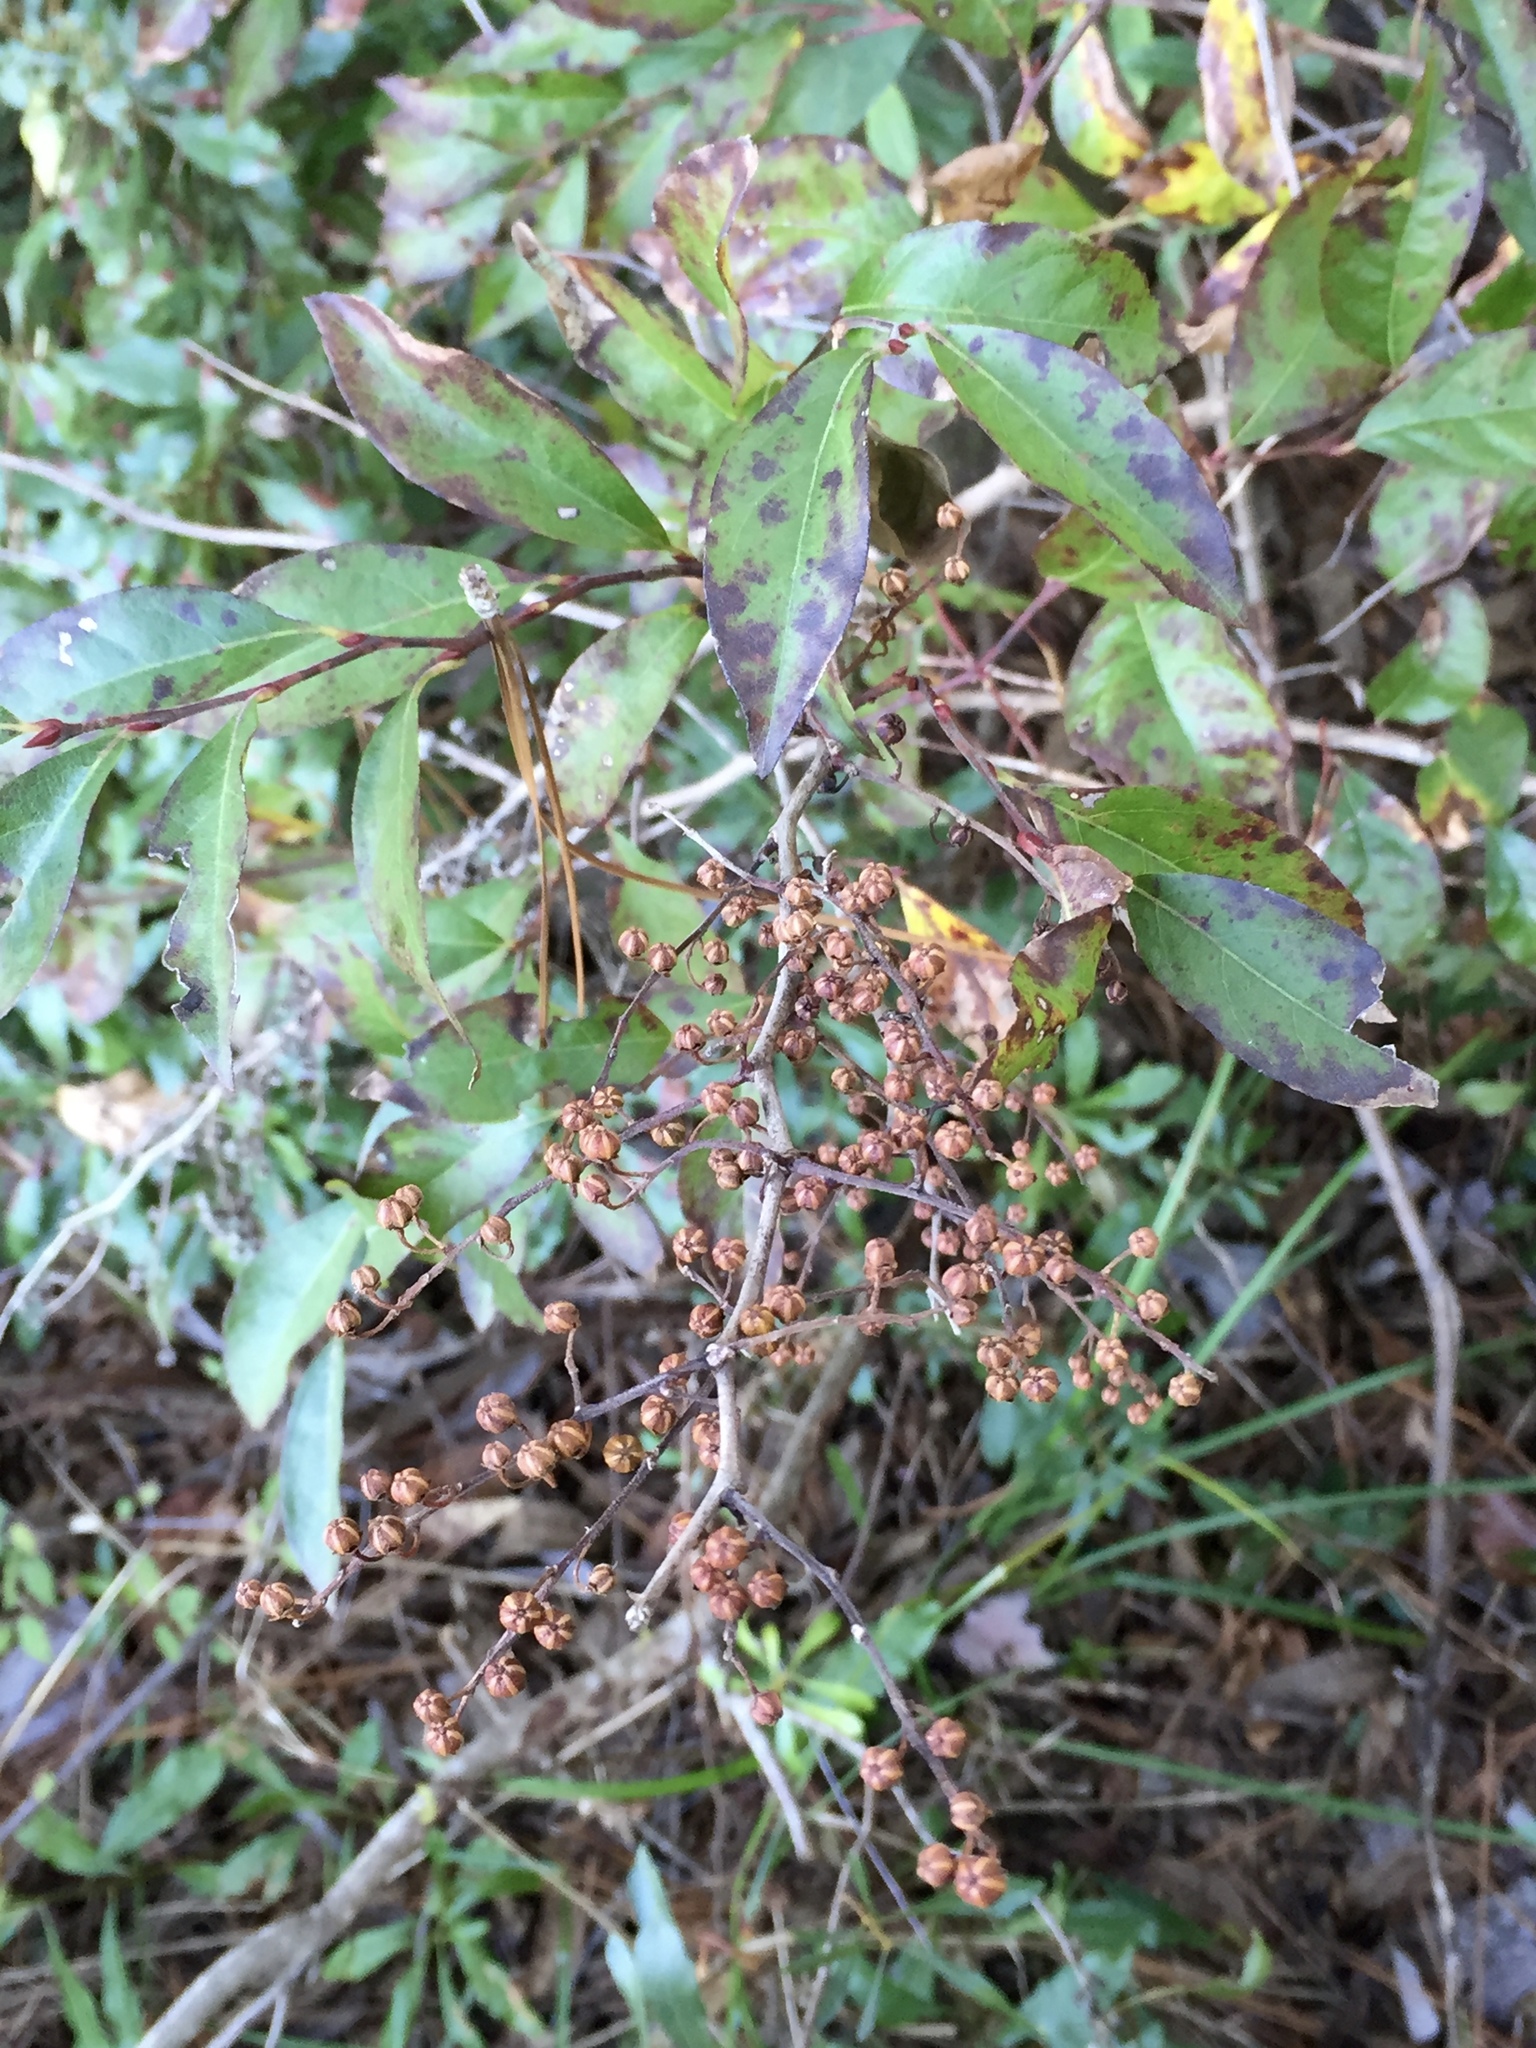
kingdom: Plantae
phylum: Tracheophyta
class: Magnoliopsida
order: Ericales
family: Ericaceae
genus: Lyonia
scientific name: Lyonia ligustrina
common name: Maleberry
